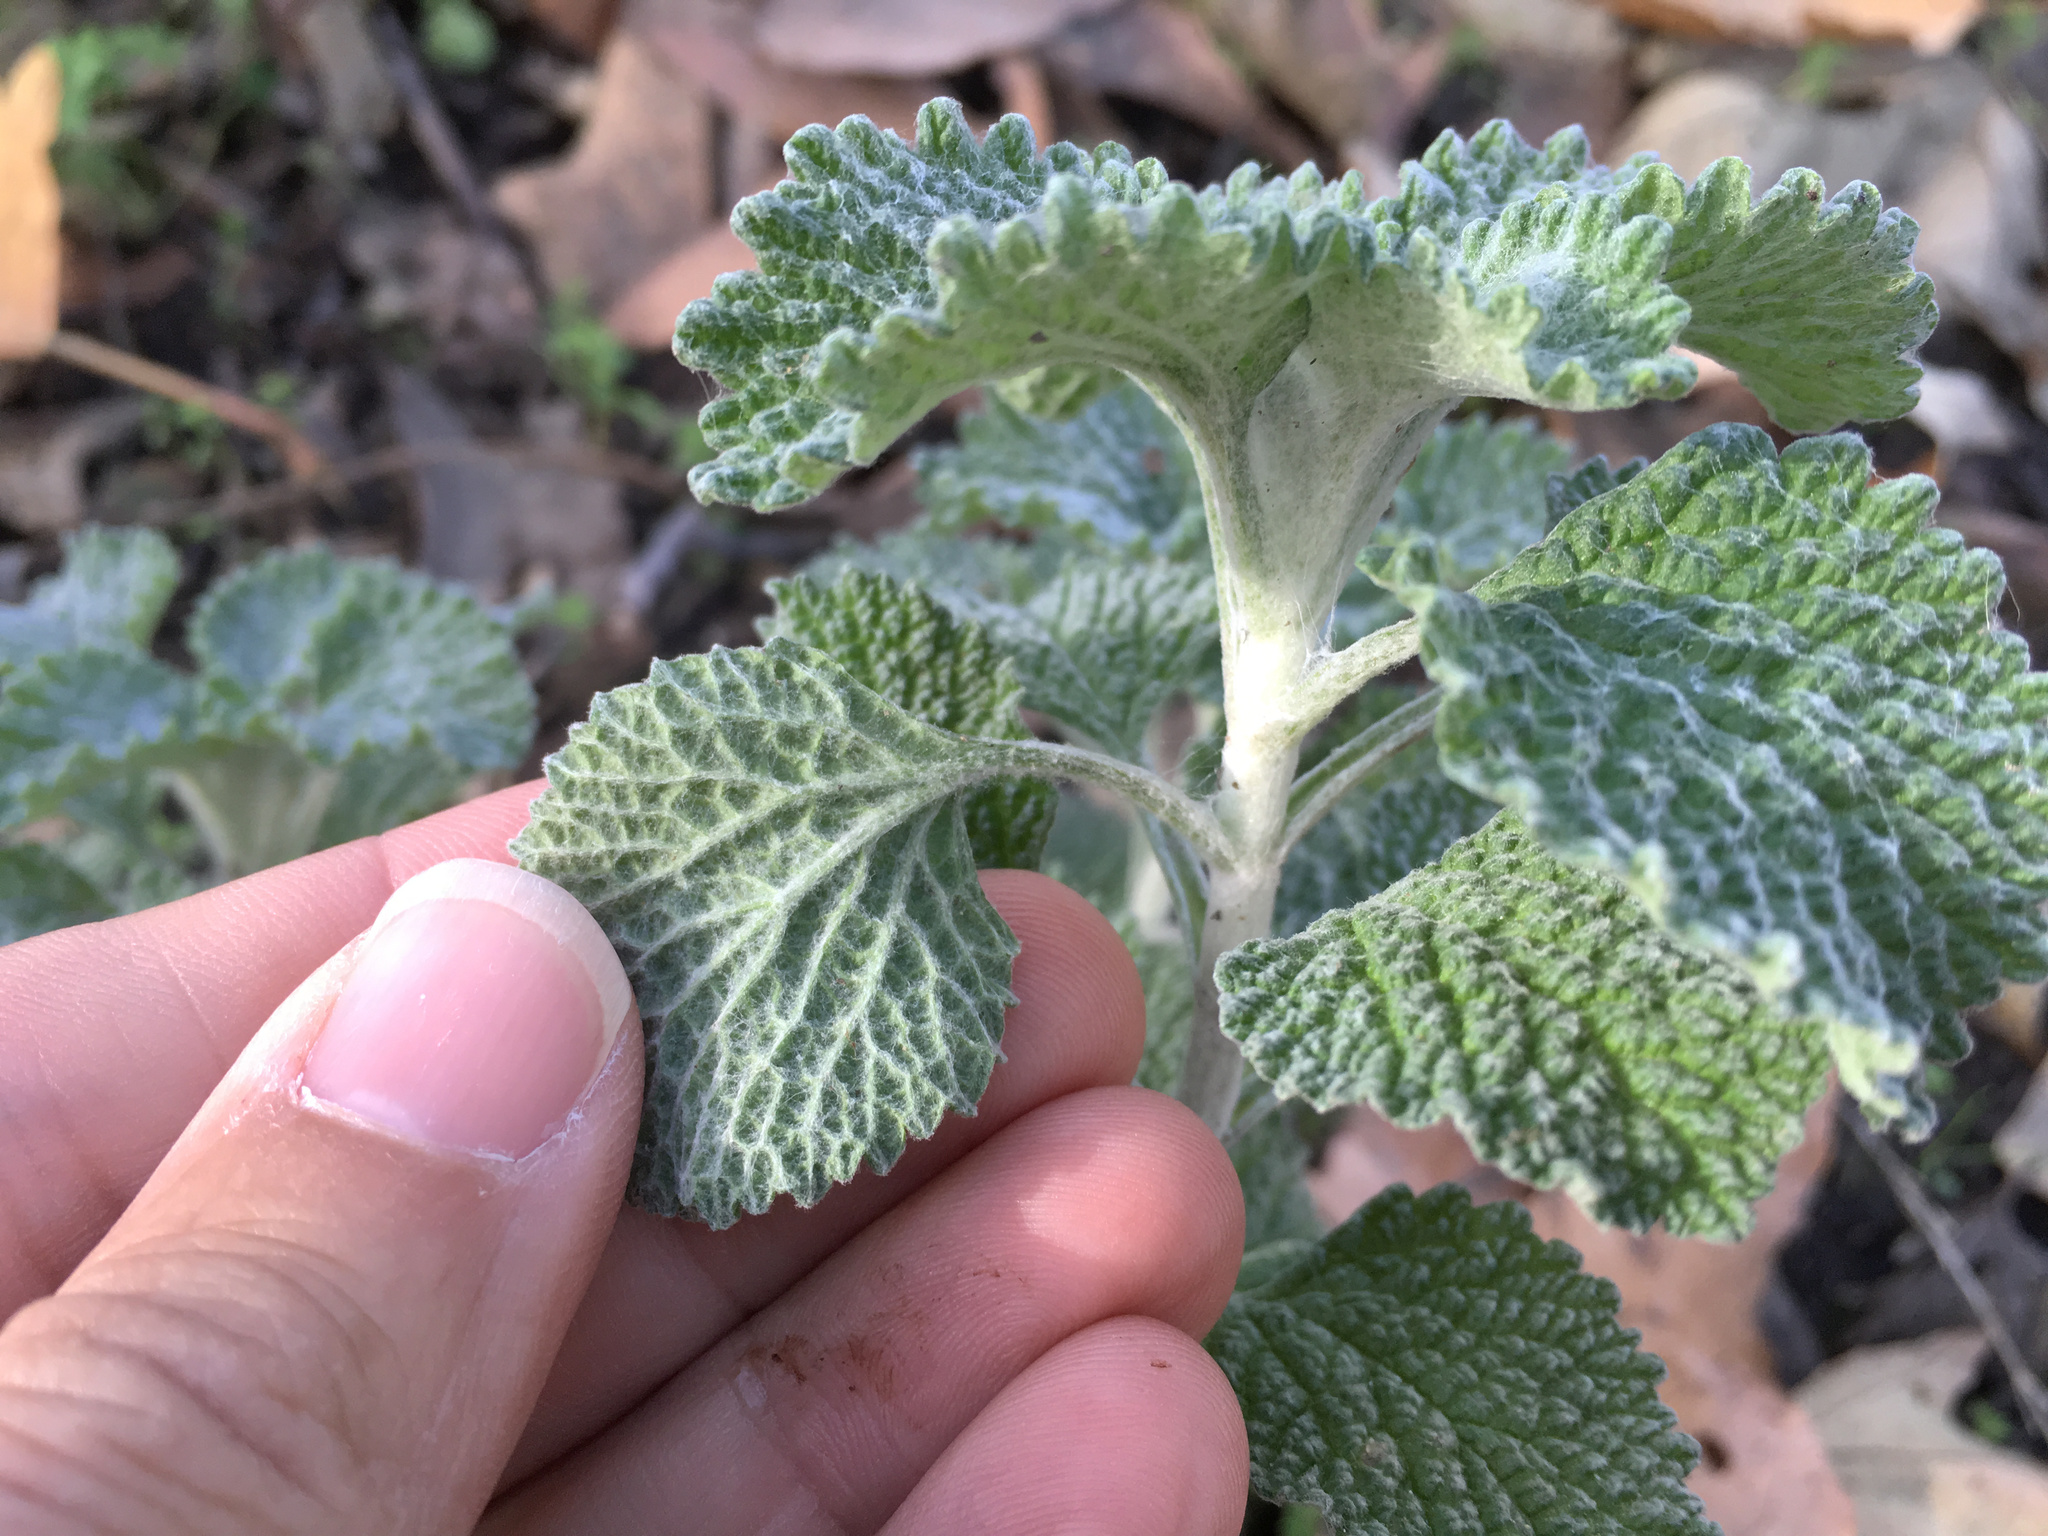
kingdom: Plantae
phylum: Tracheophyta
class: Magnoliopsida
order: Lamiales
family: Lamiaceae
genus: Marrubium
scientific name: Marrubium vulgare
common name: Horehound
